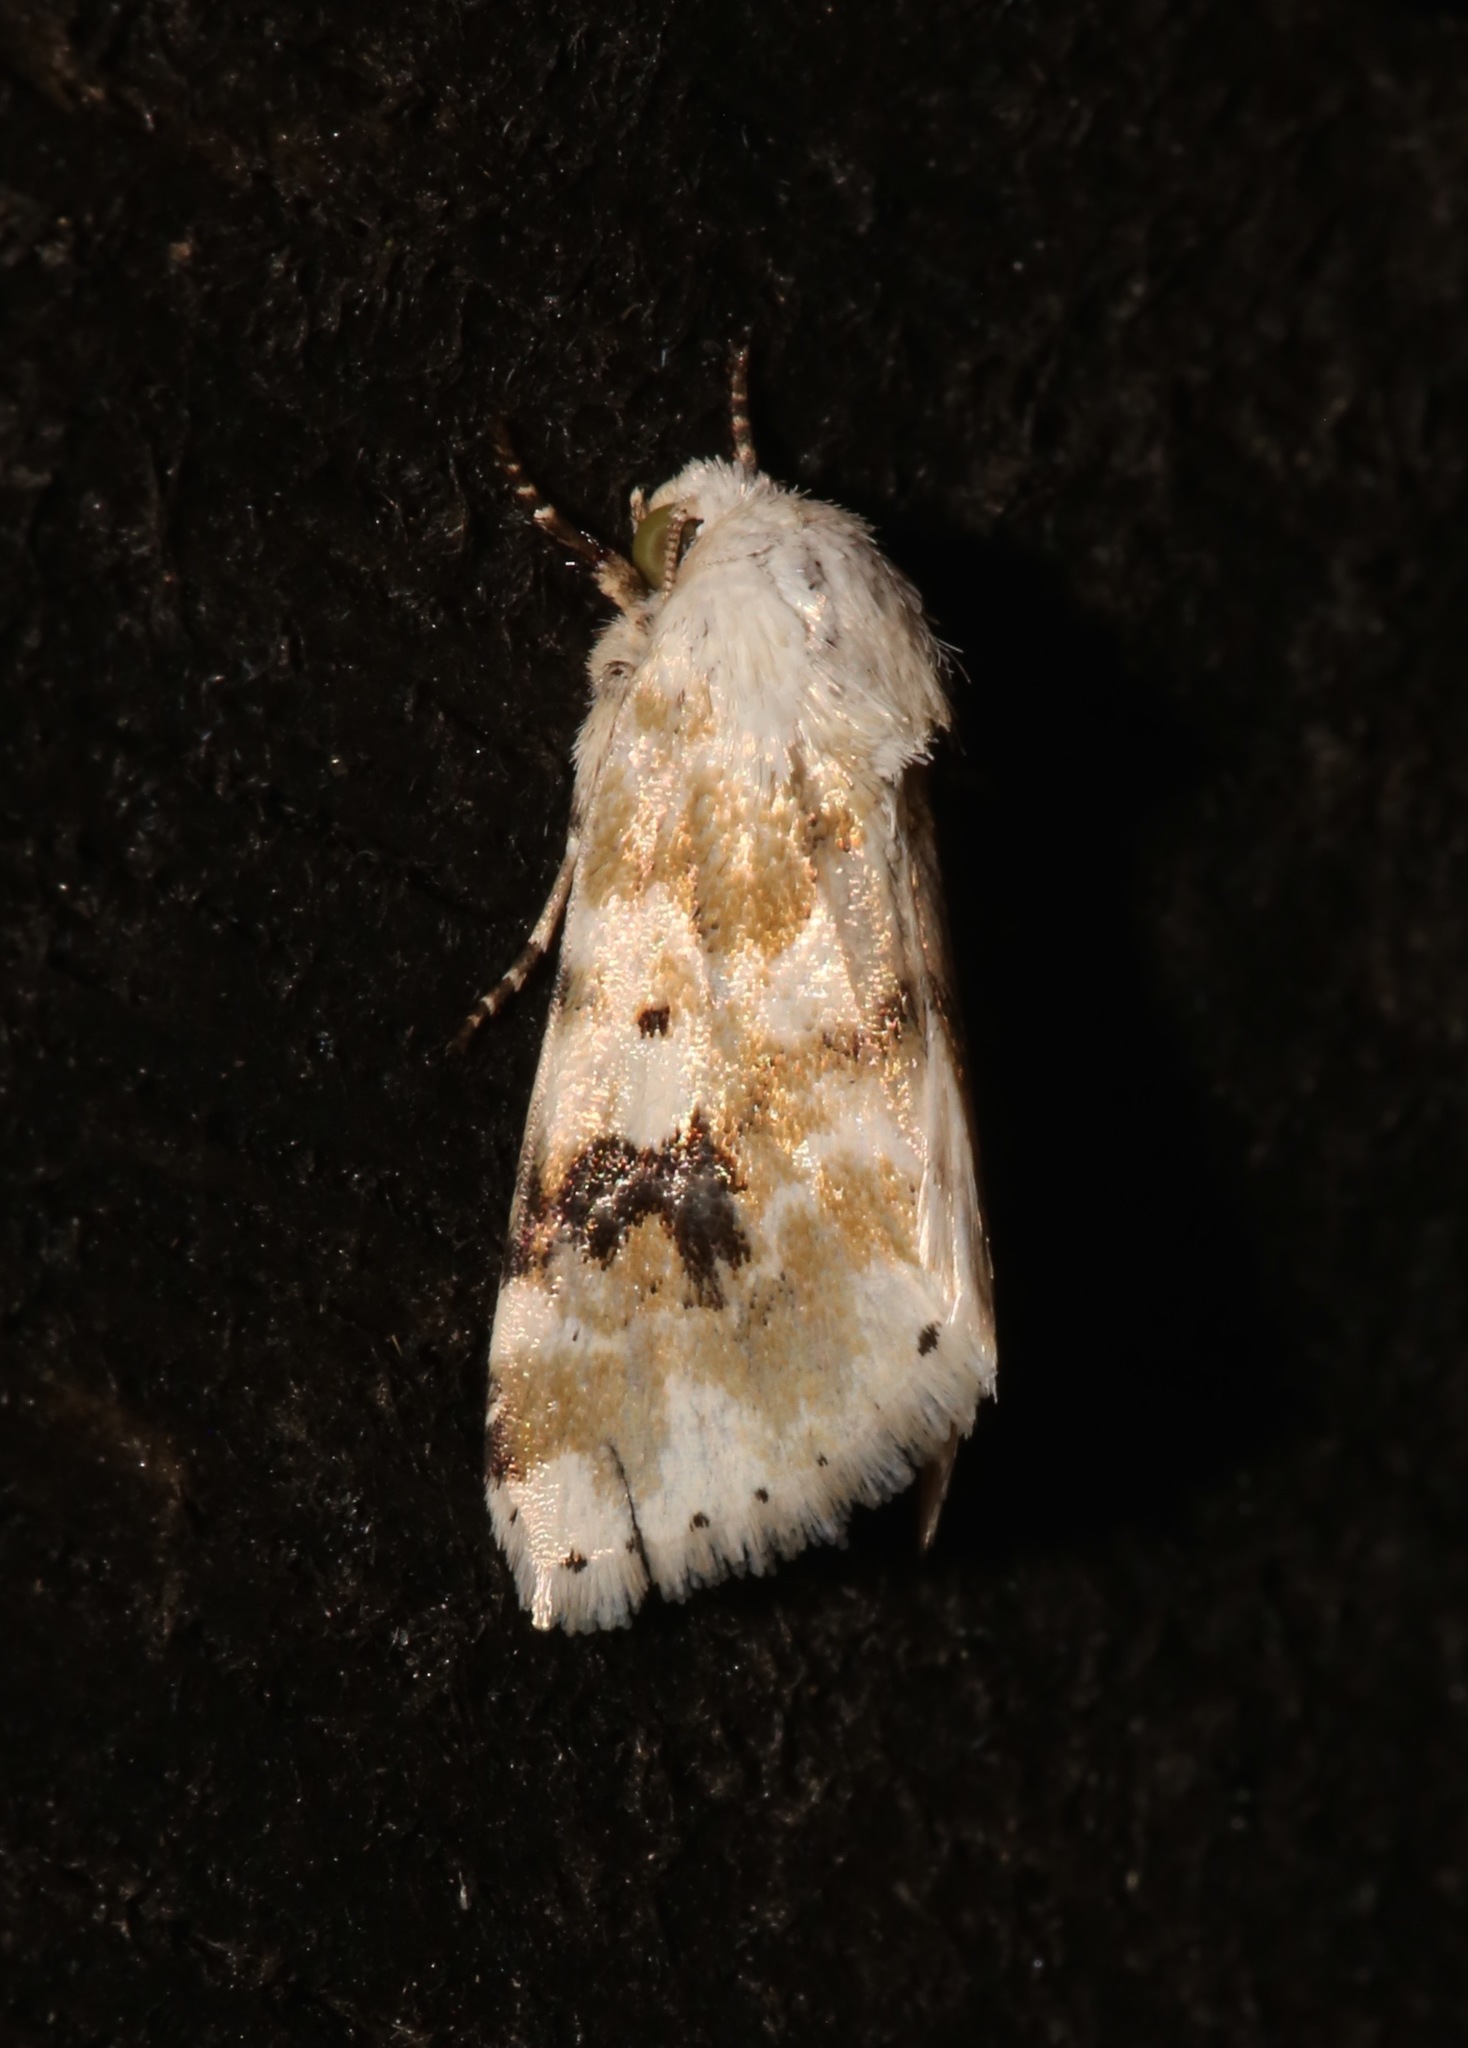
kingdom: Animalia
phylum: Arthropoda
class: Insecta
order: Lepidoptera
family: Noctuidae
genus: Schinia
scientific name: Schinia nundina
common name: Goldenrod flower moth
